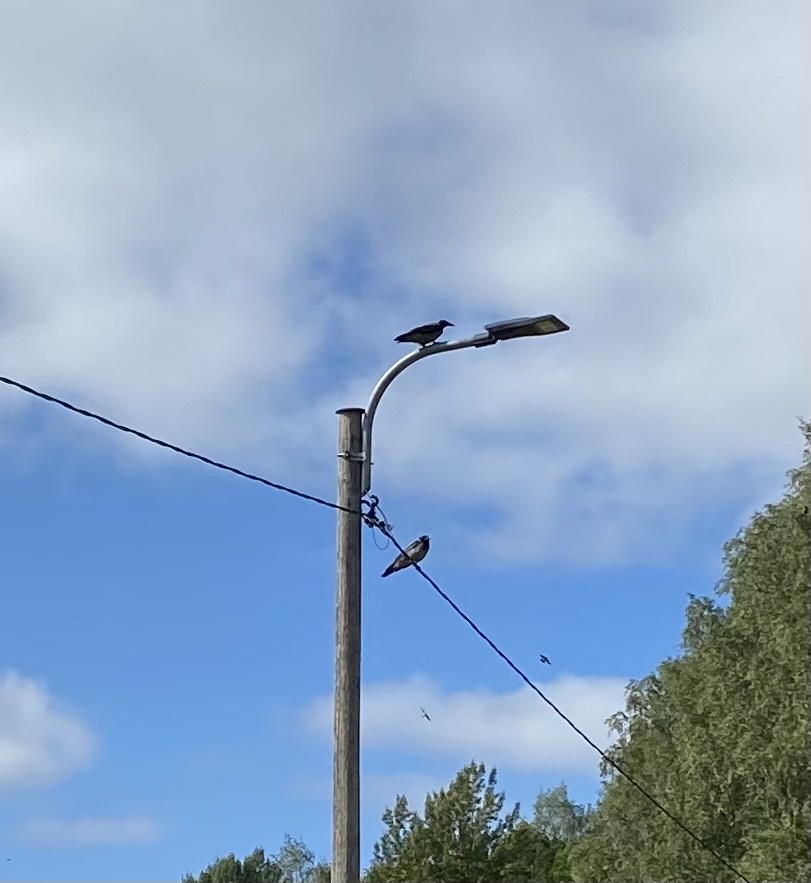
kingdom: Animalia
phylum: Chordata
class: Aves
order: Passeriformes
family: Corvidae
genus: Corvus
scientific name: Corvus cornix
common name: Hooded crow
